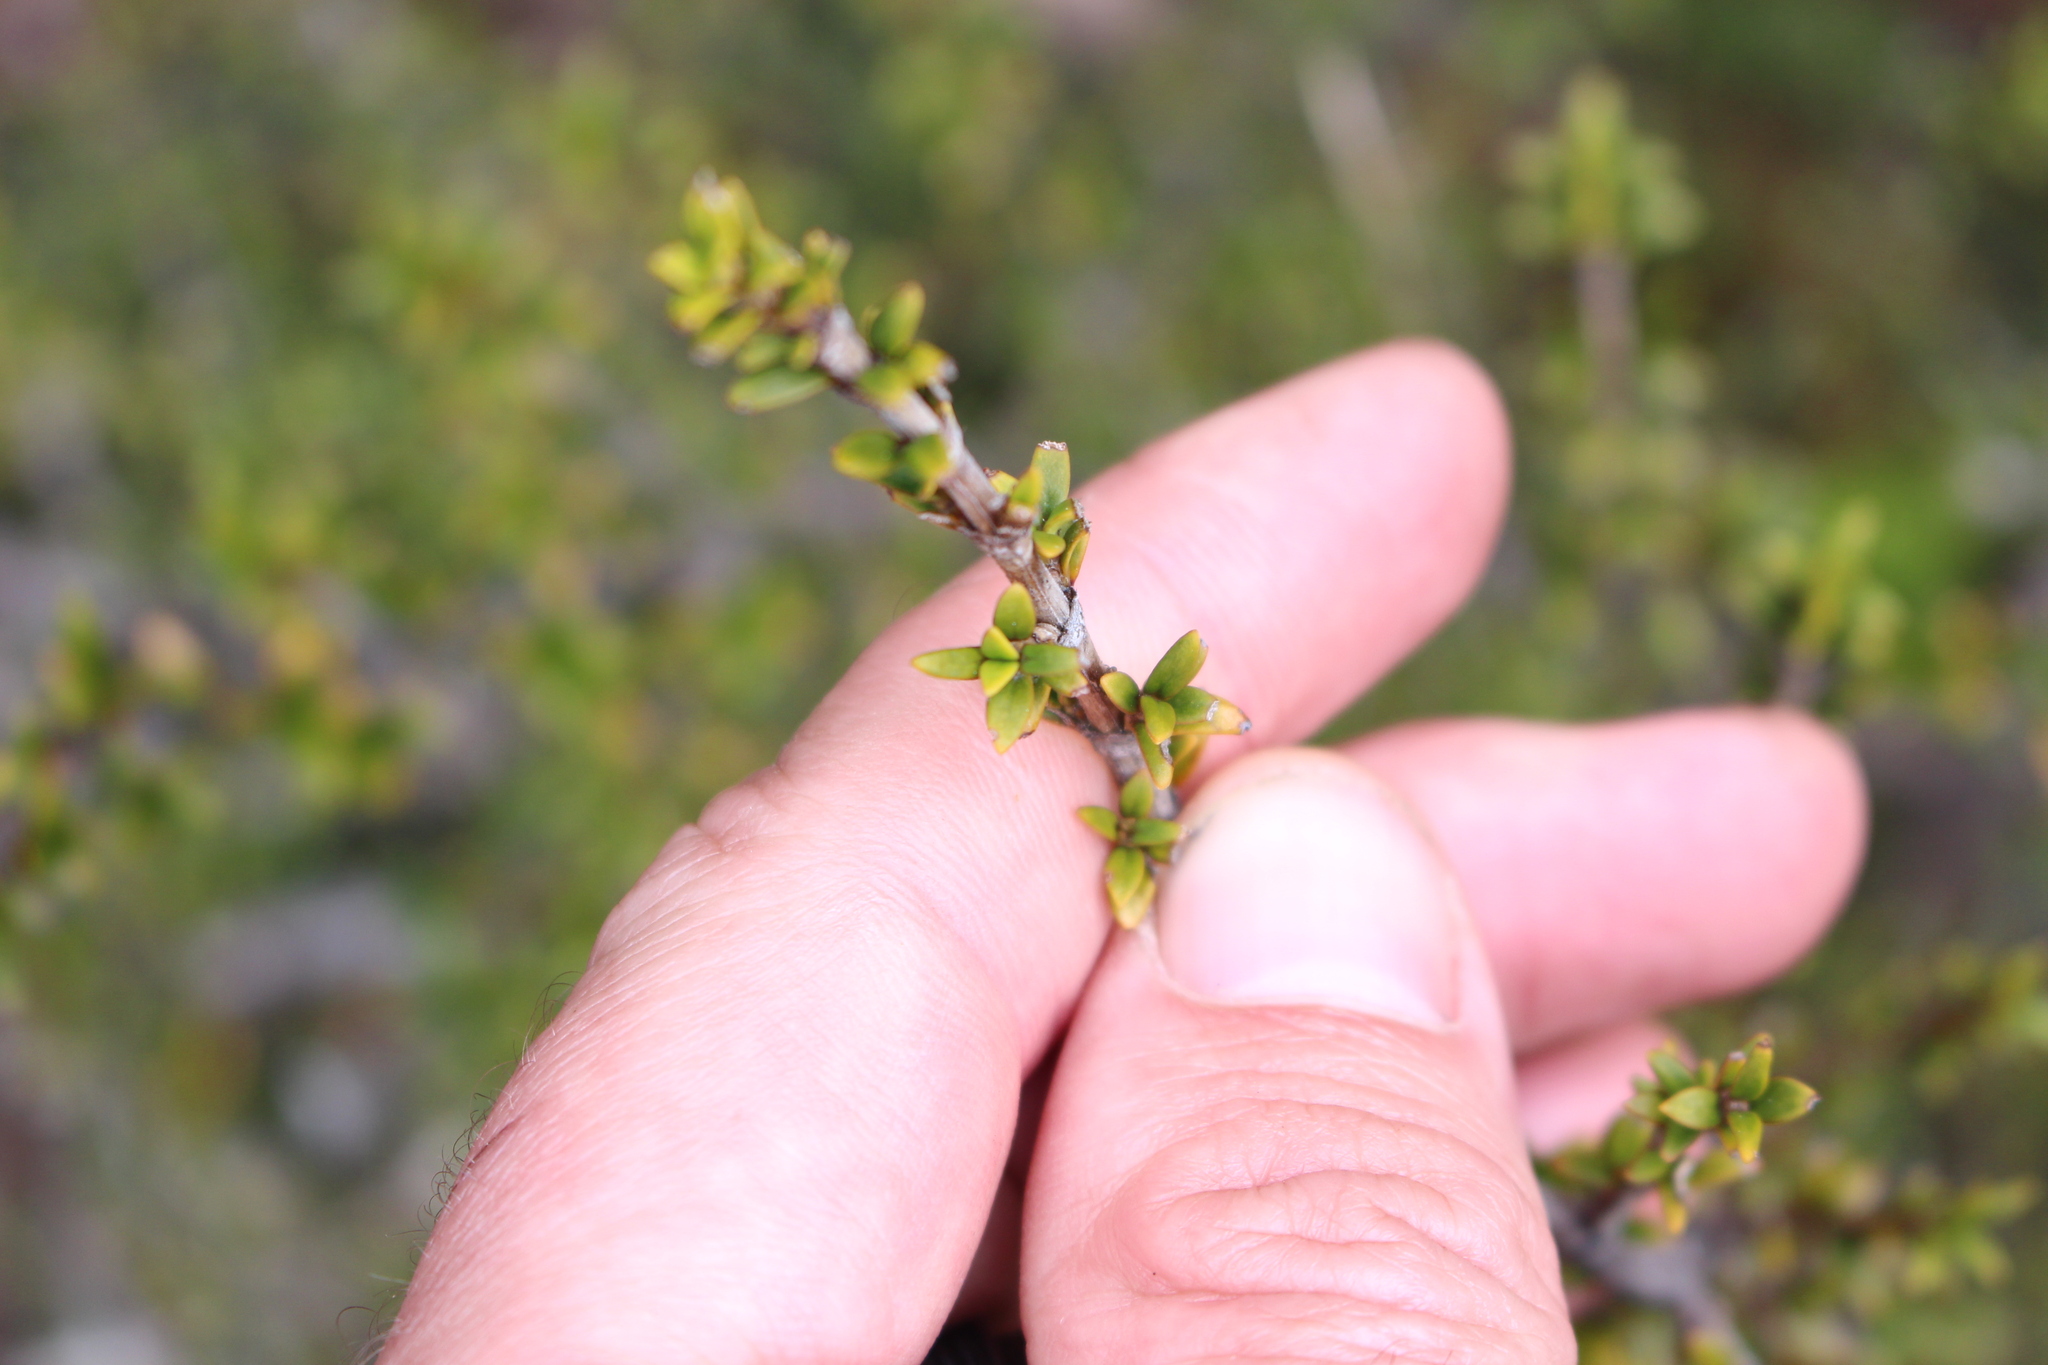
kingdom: Plantae
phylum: Tracheophyta
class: Magnoliopsida
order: Gentianales
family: Rubiaceae
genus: Coprosma
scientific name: Coprosma pseudocuneata
